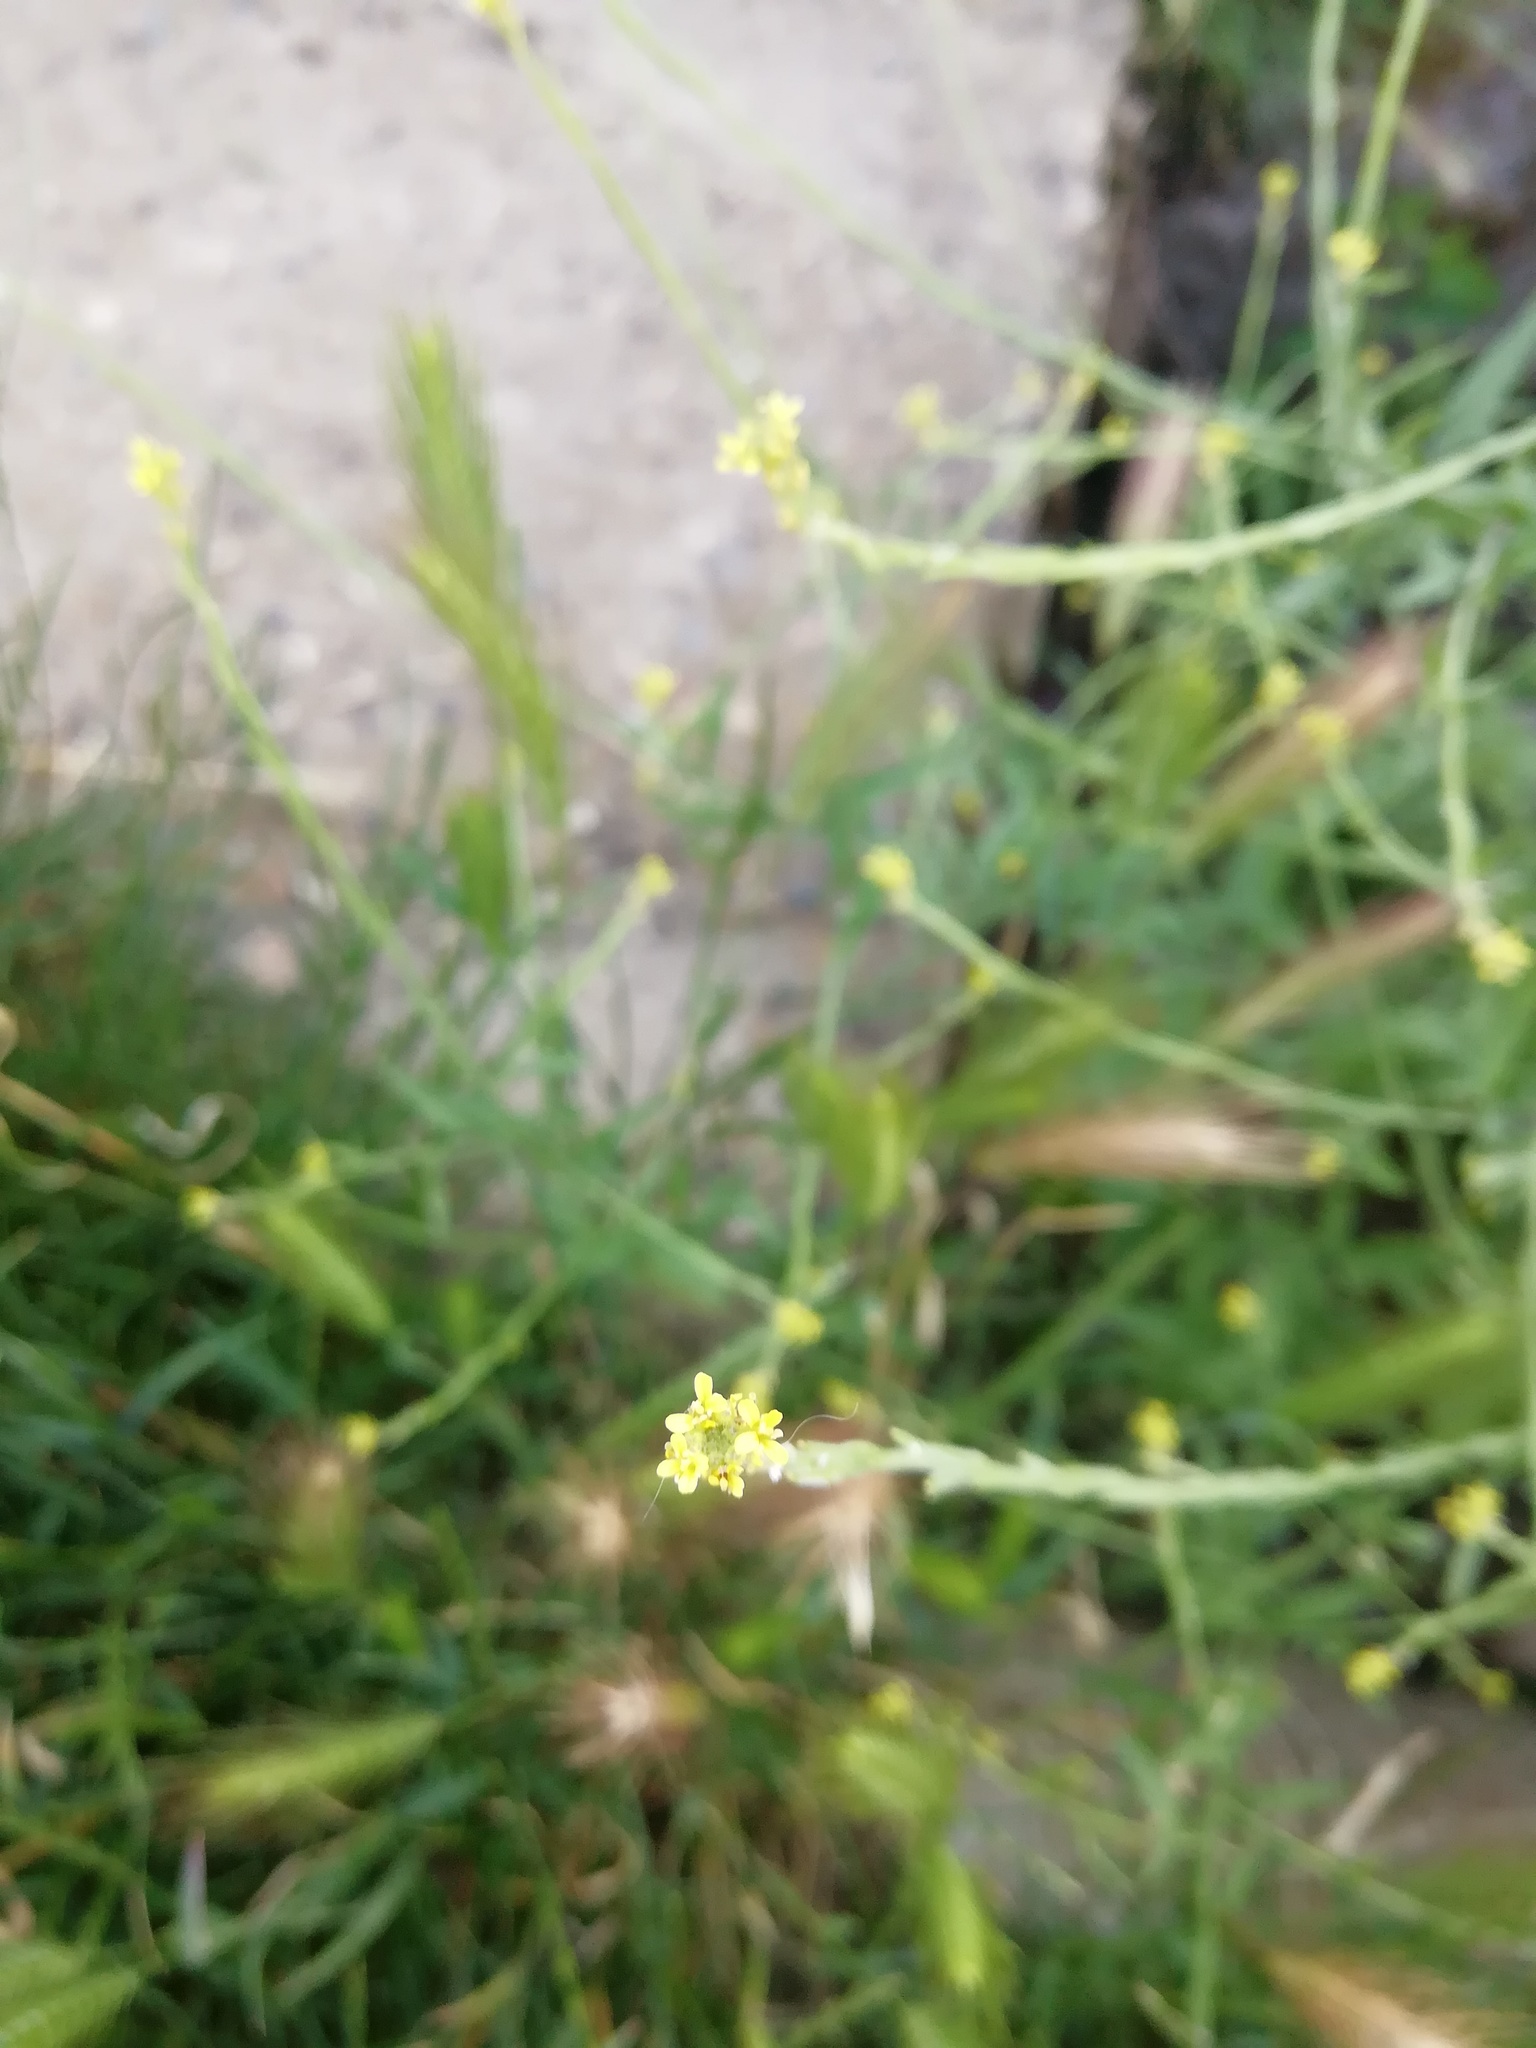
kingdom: Plantae
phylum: Tracheophyta
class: Magnoliopsida
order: Brassicales
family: Brassicaceae
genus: Sisymbrium
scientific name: Sisymbrium officinale
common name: Hedge mustard
